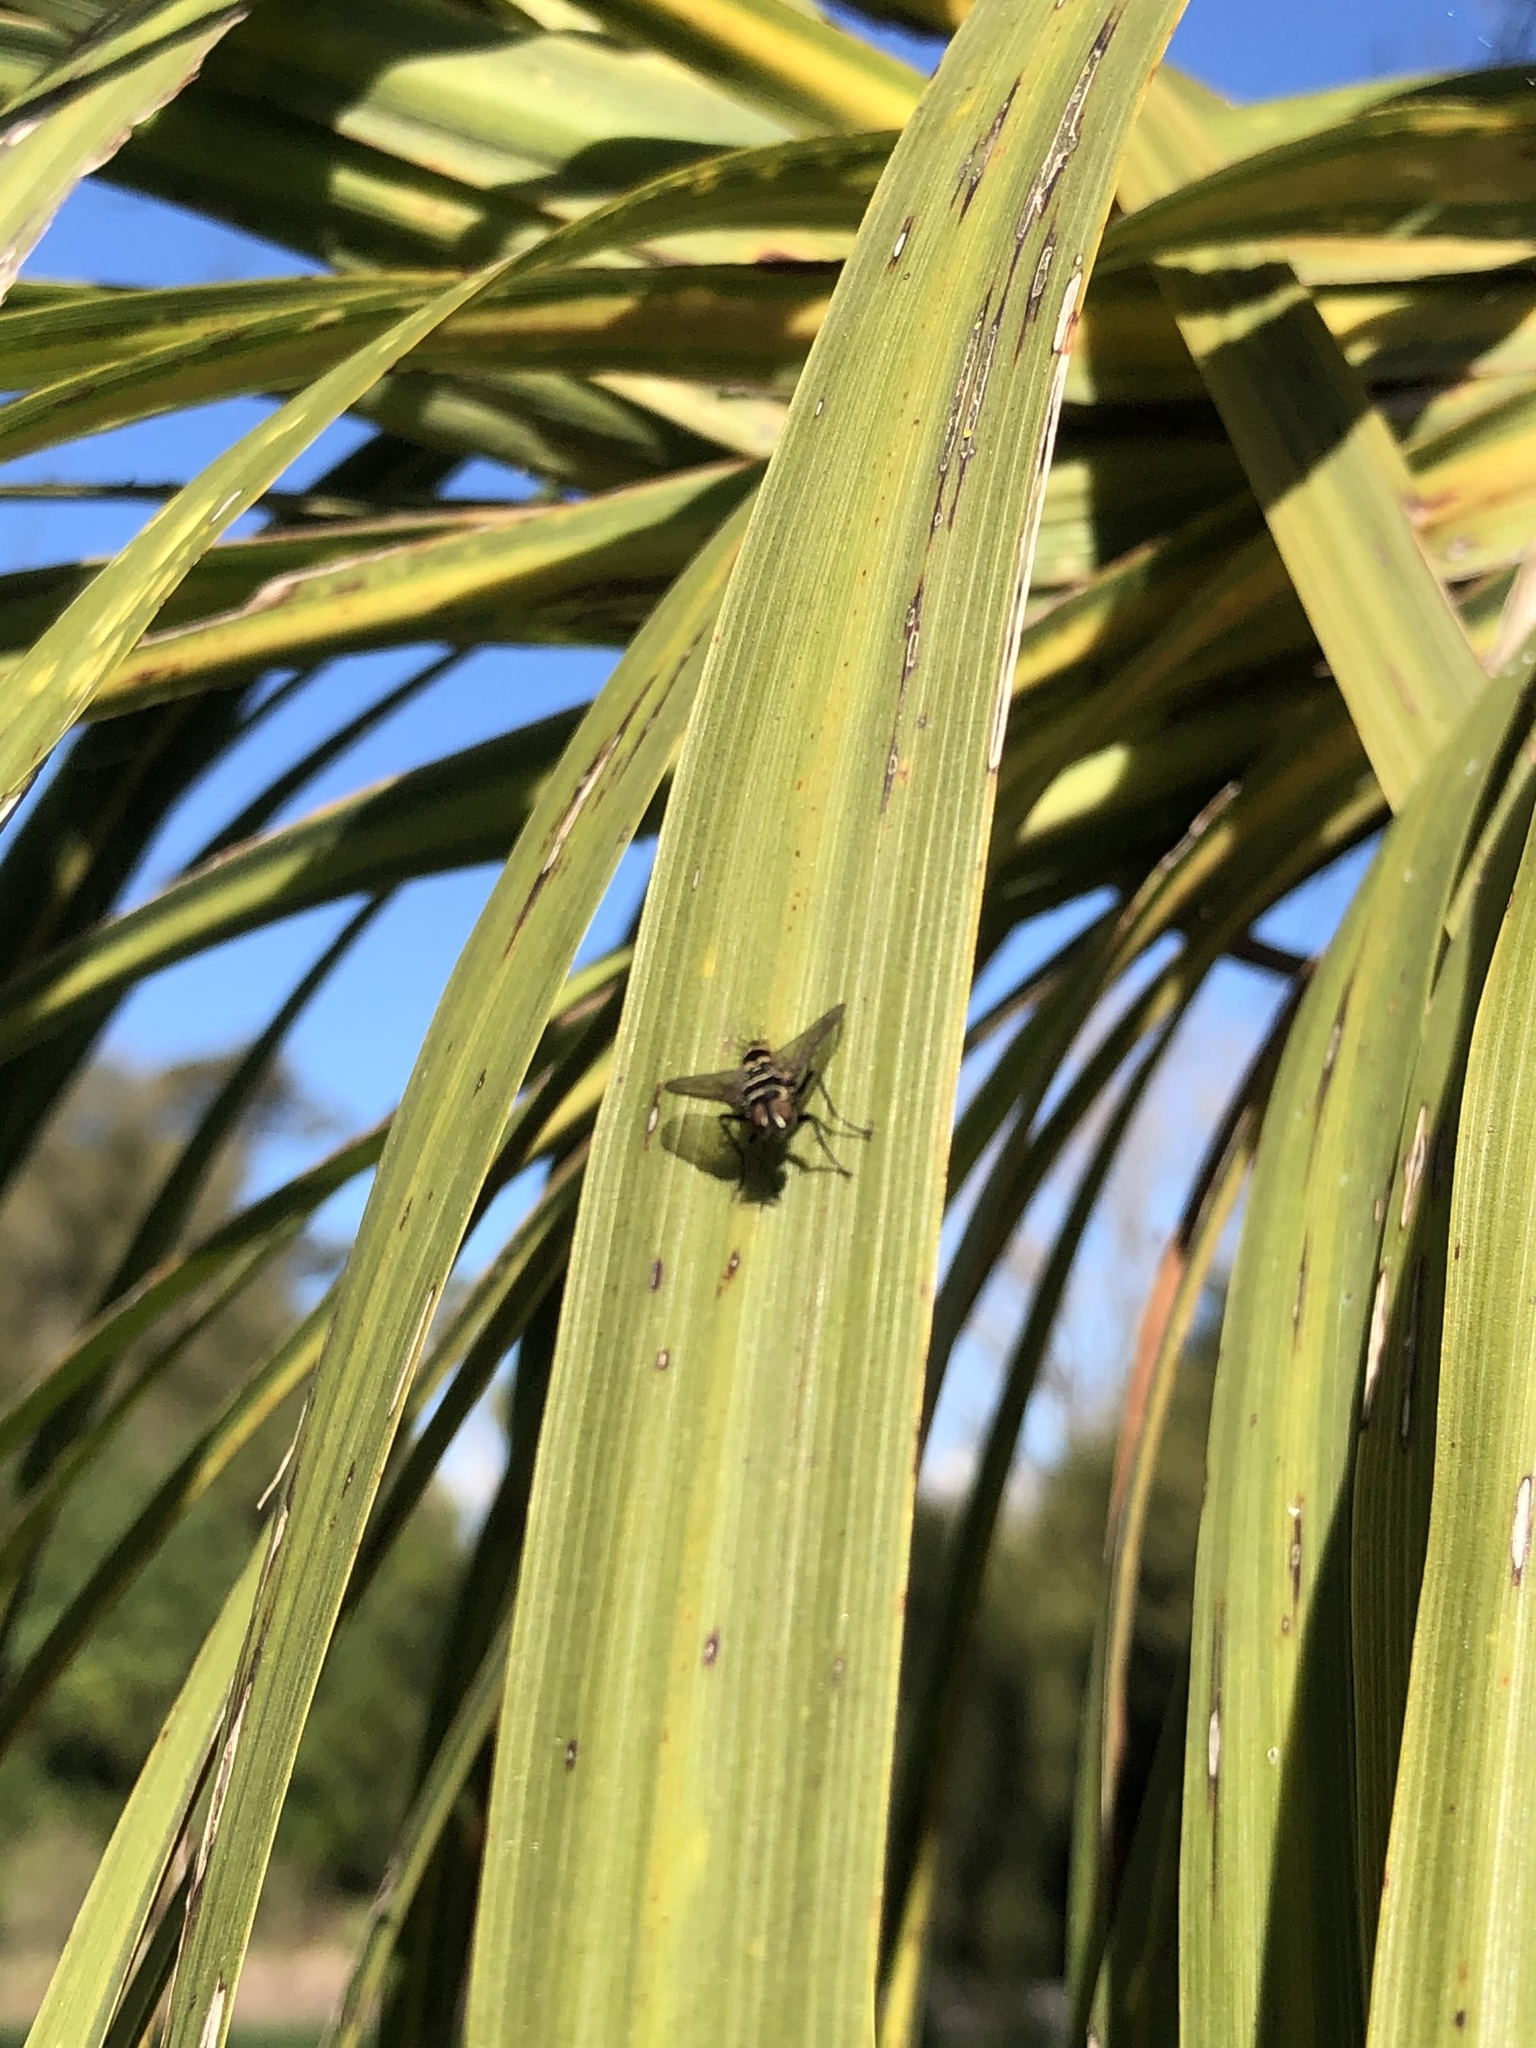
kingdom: Animalia
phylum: Arthropoda
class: Insecta
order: Diptera
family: Tachinidae
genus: Trigonospila
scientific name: Trigonospila brevifacies
